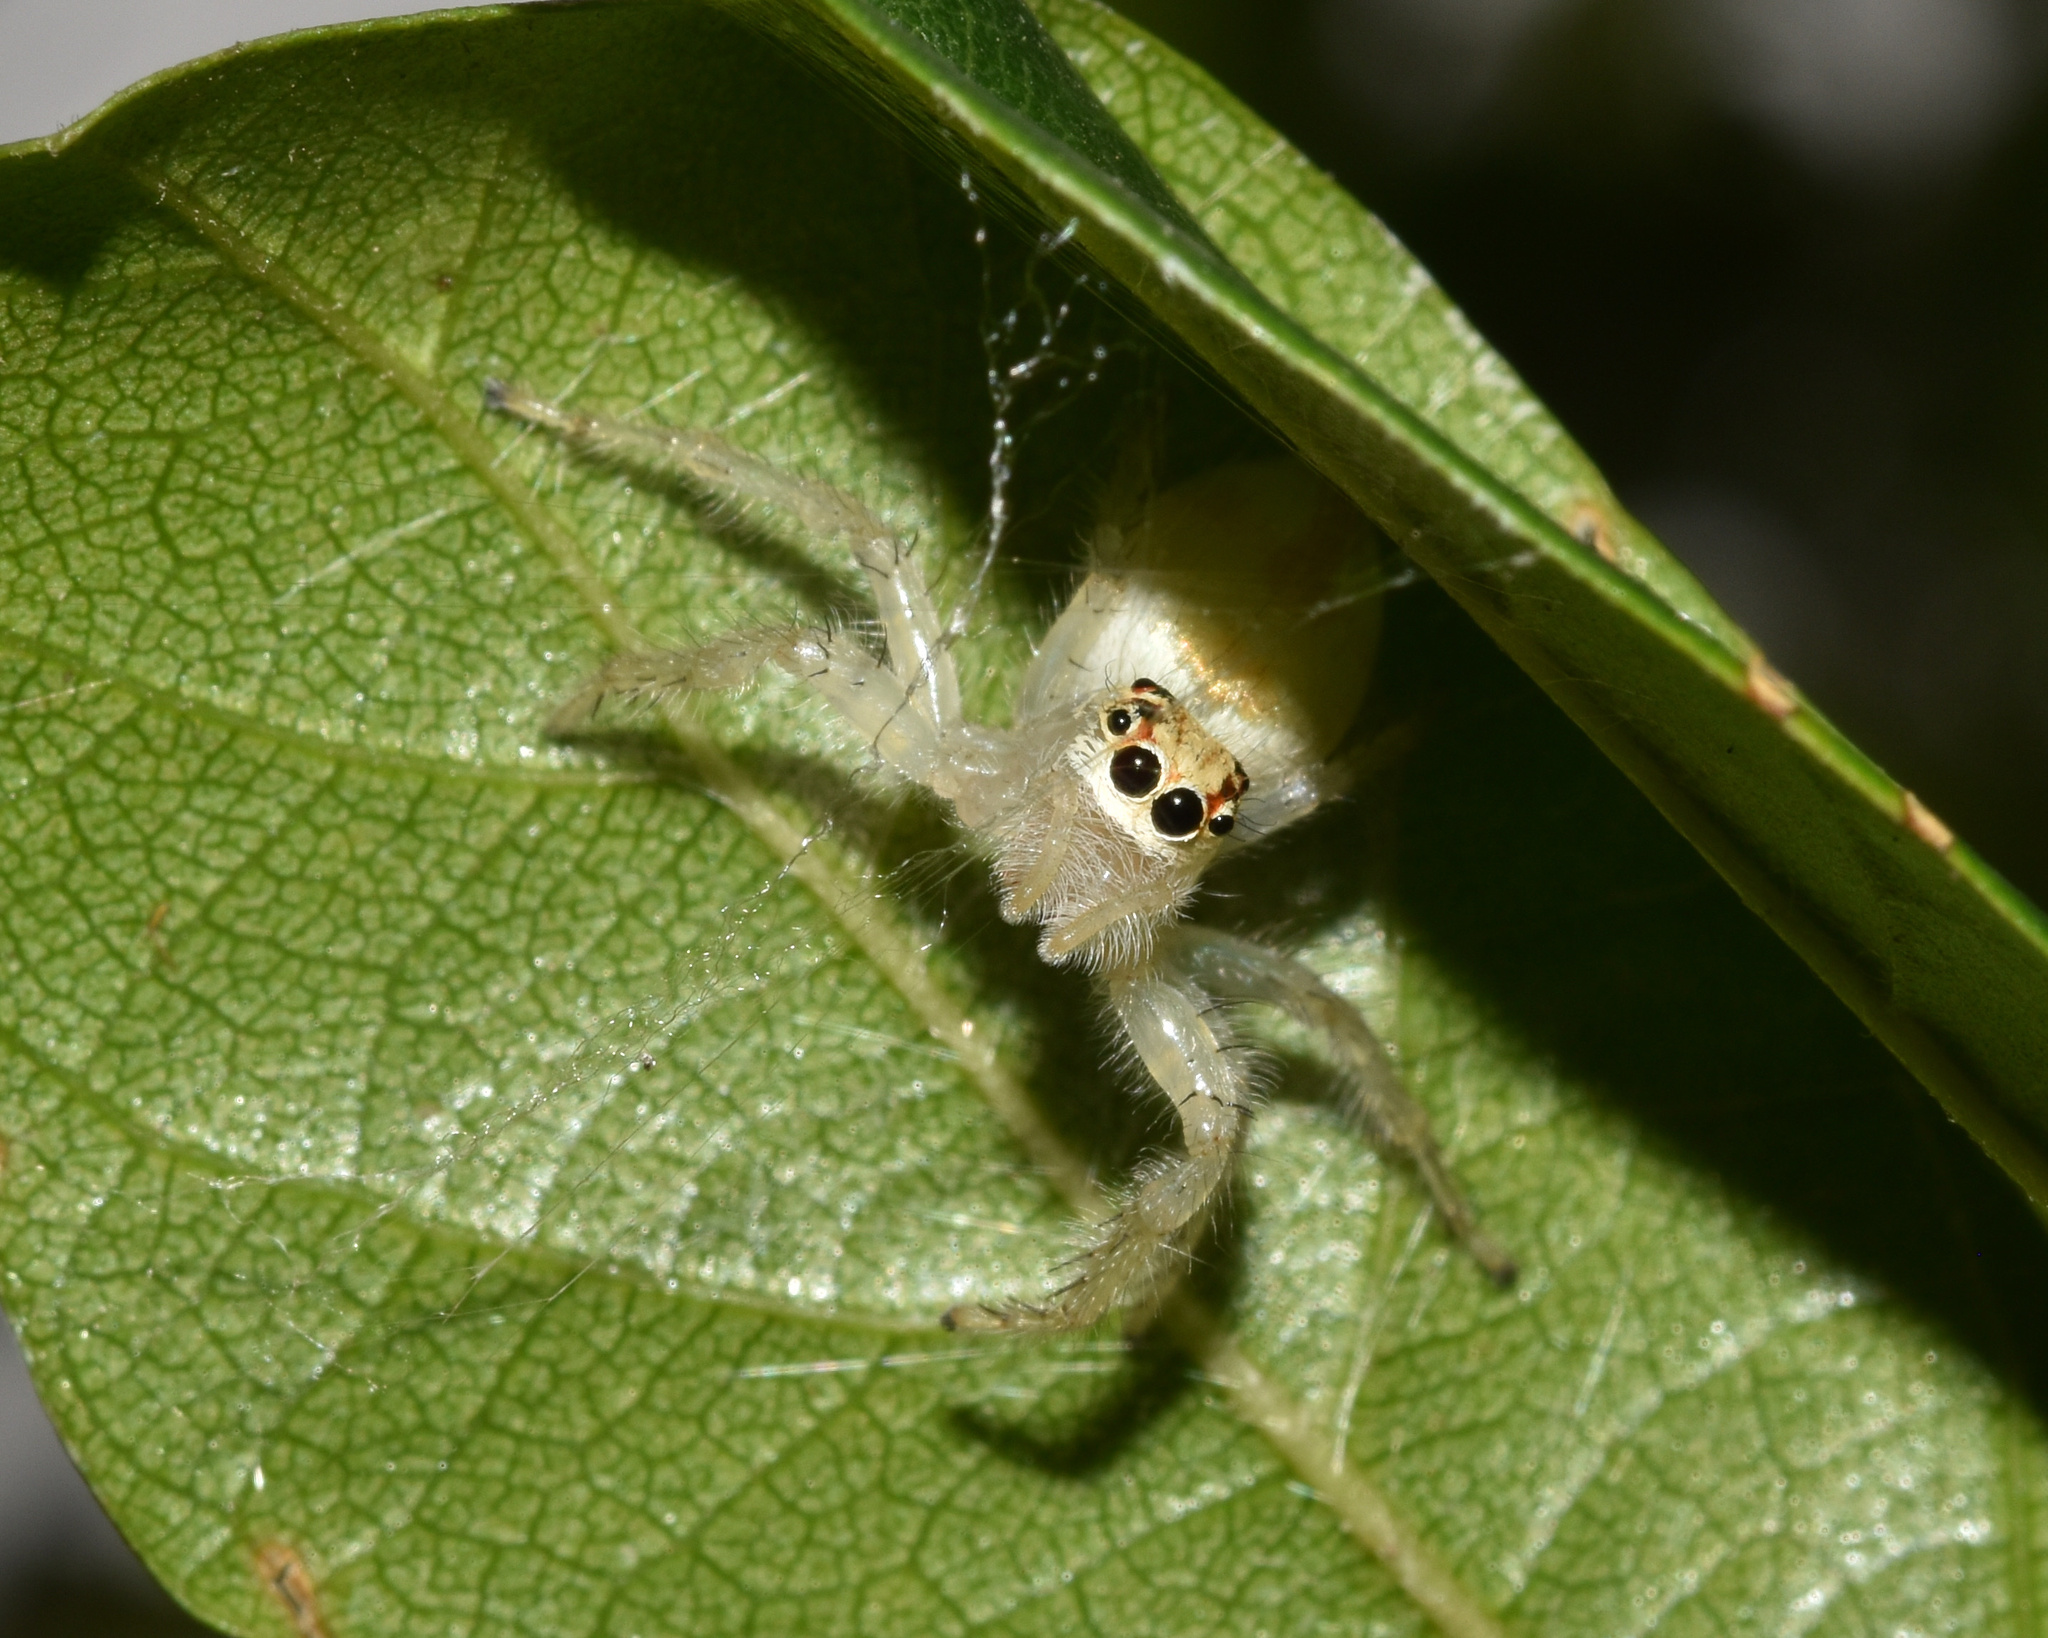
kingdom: Animalia
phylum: Arthropoda
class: Arachnida
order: Araneae
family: Salticidae
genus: Brancus
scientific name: Brancus mustelus
